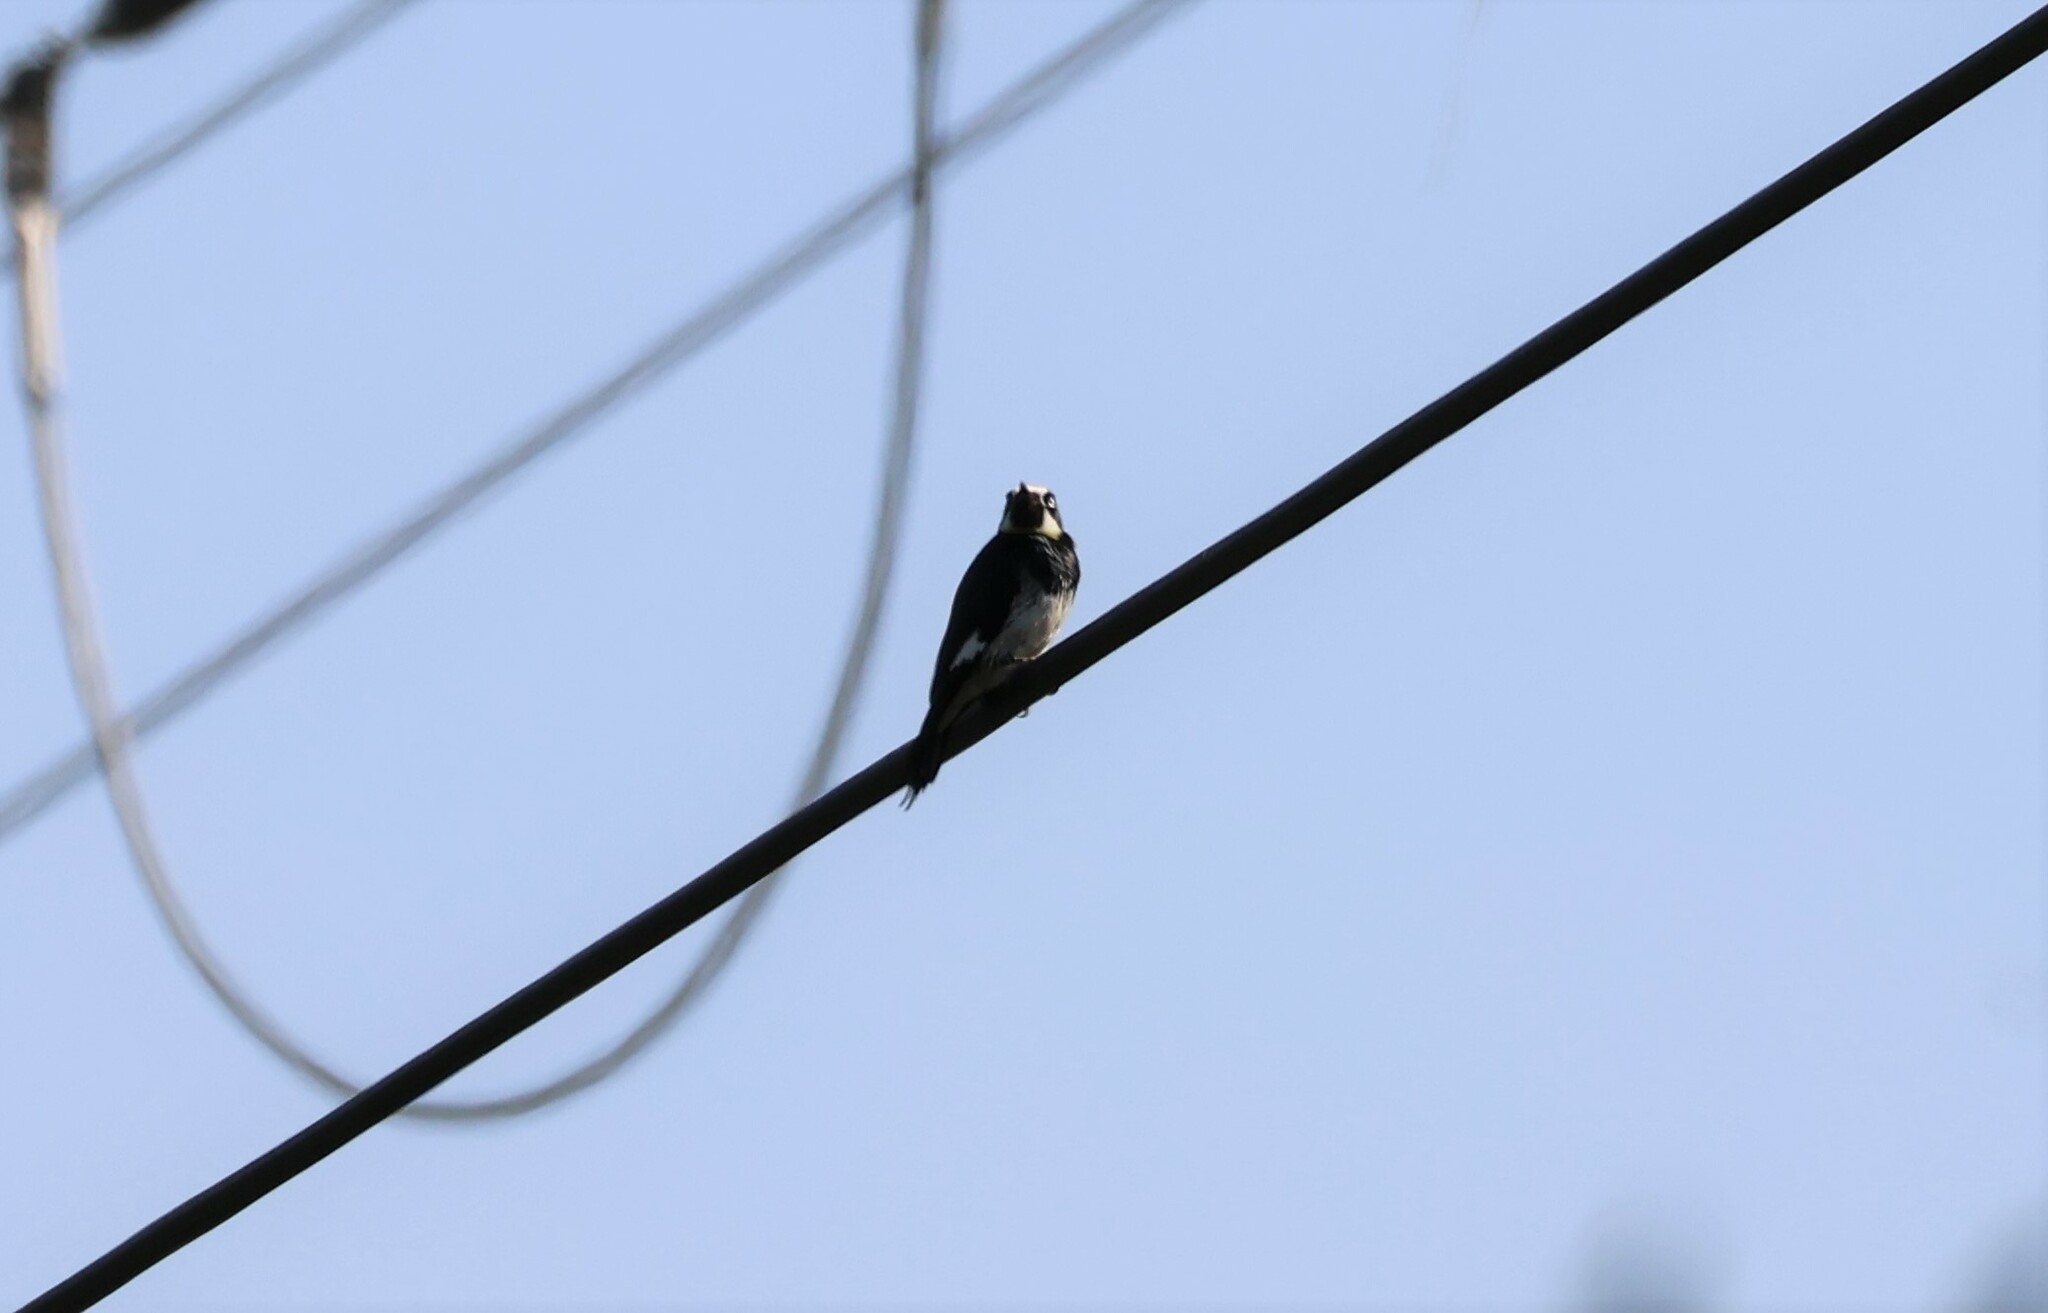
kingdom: Animalia
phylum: Chordata
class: Aves
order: Piciformes
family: Picidae
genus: Melanerpes
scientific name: Melanerpes formicivorus
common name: Acorn woodpecker
